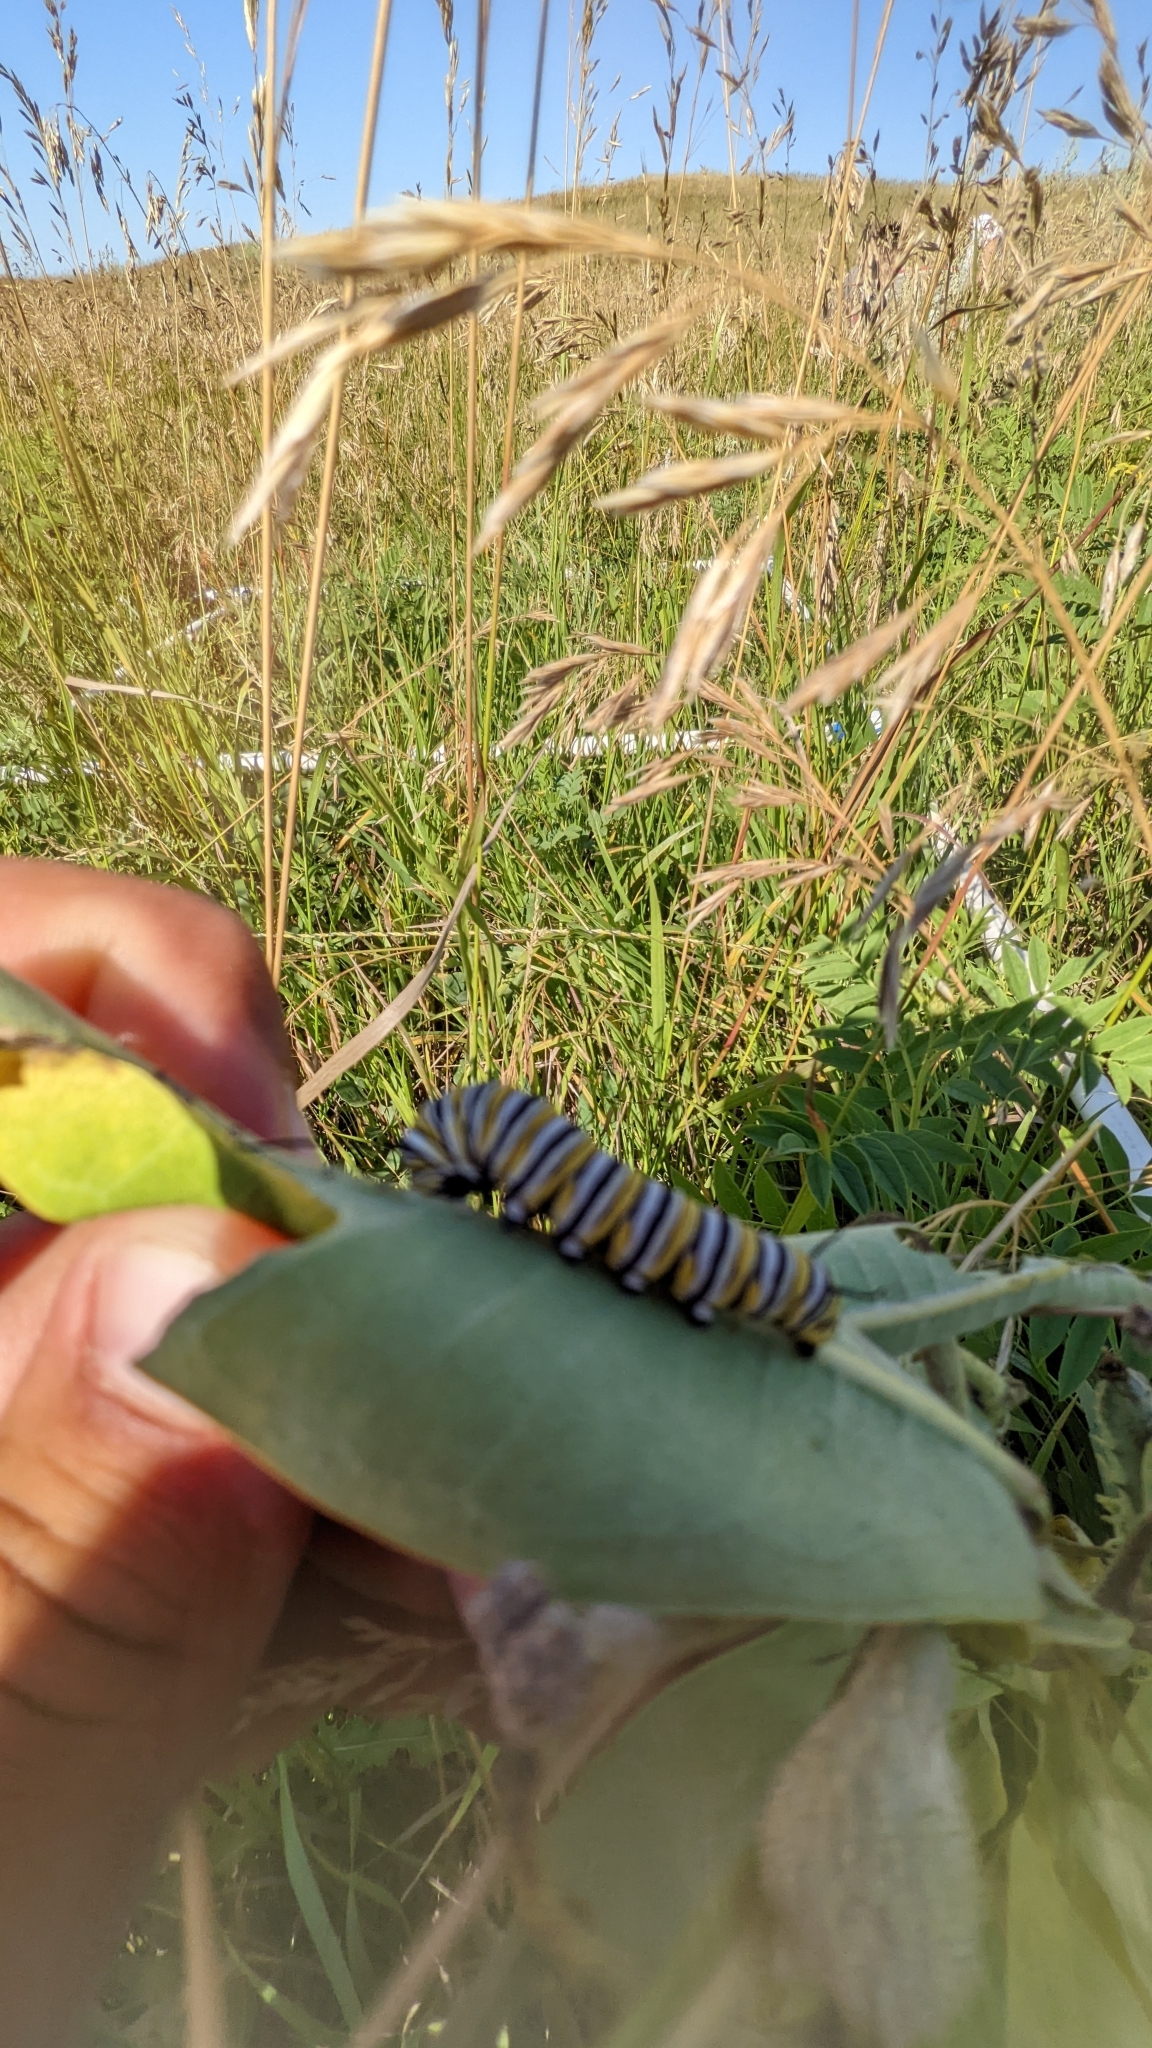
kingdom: Animalia
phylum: Arthropoda
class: Insecta
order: Lepidoptera
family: Nymphalidae
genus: Danaus
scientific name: Danaus plexippus
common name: Monarch
